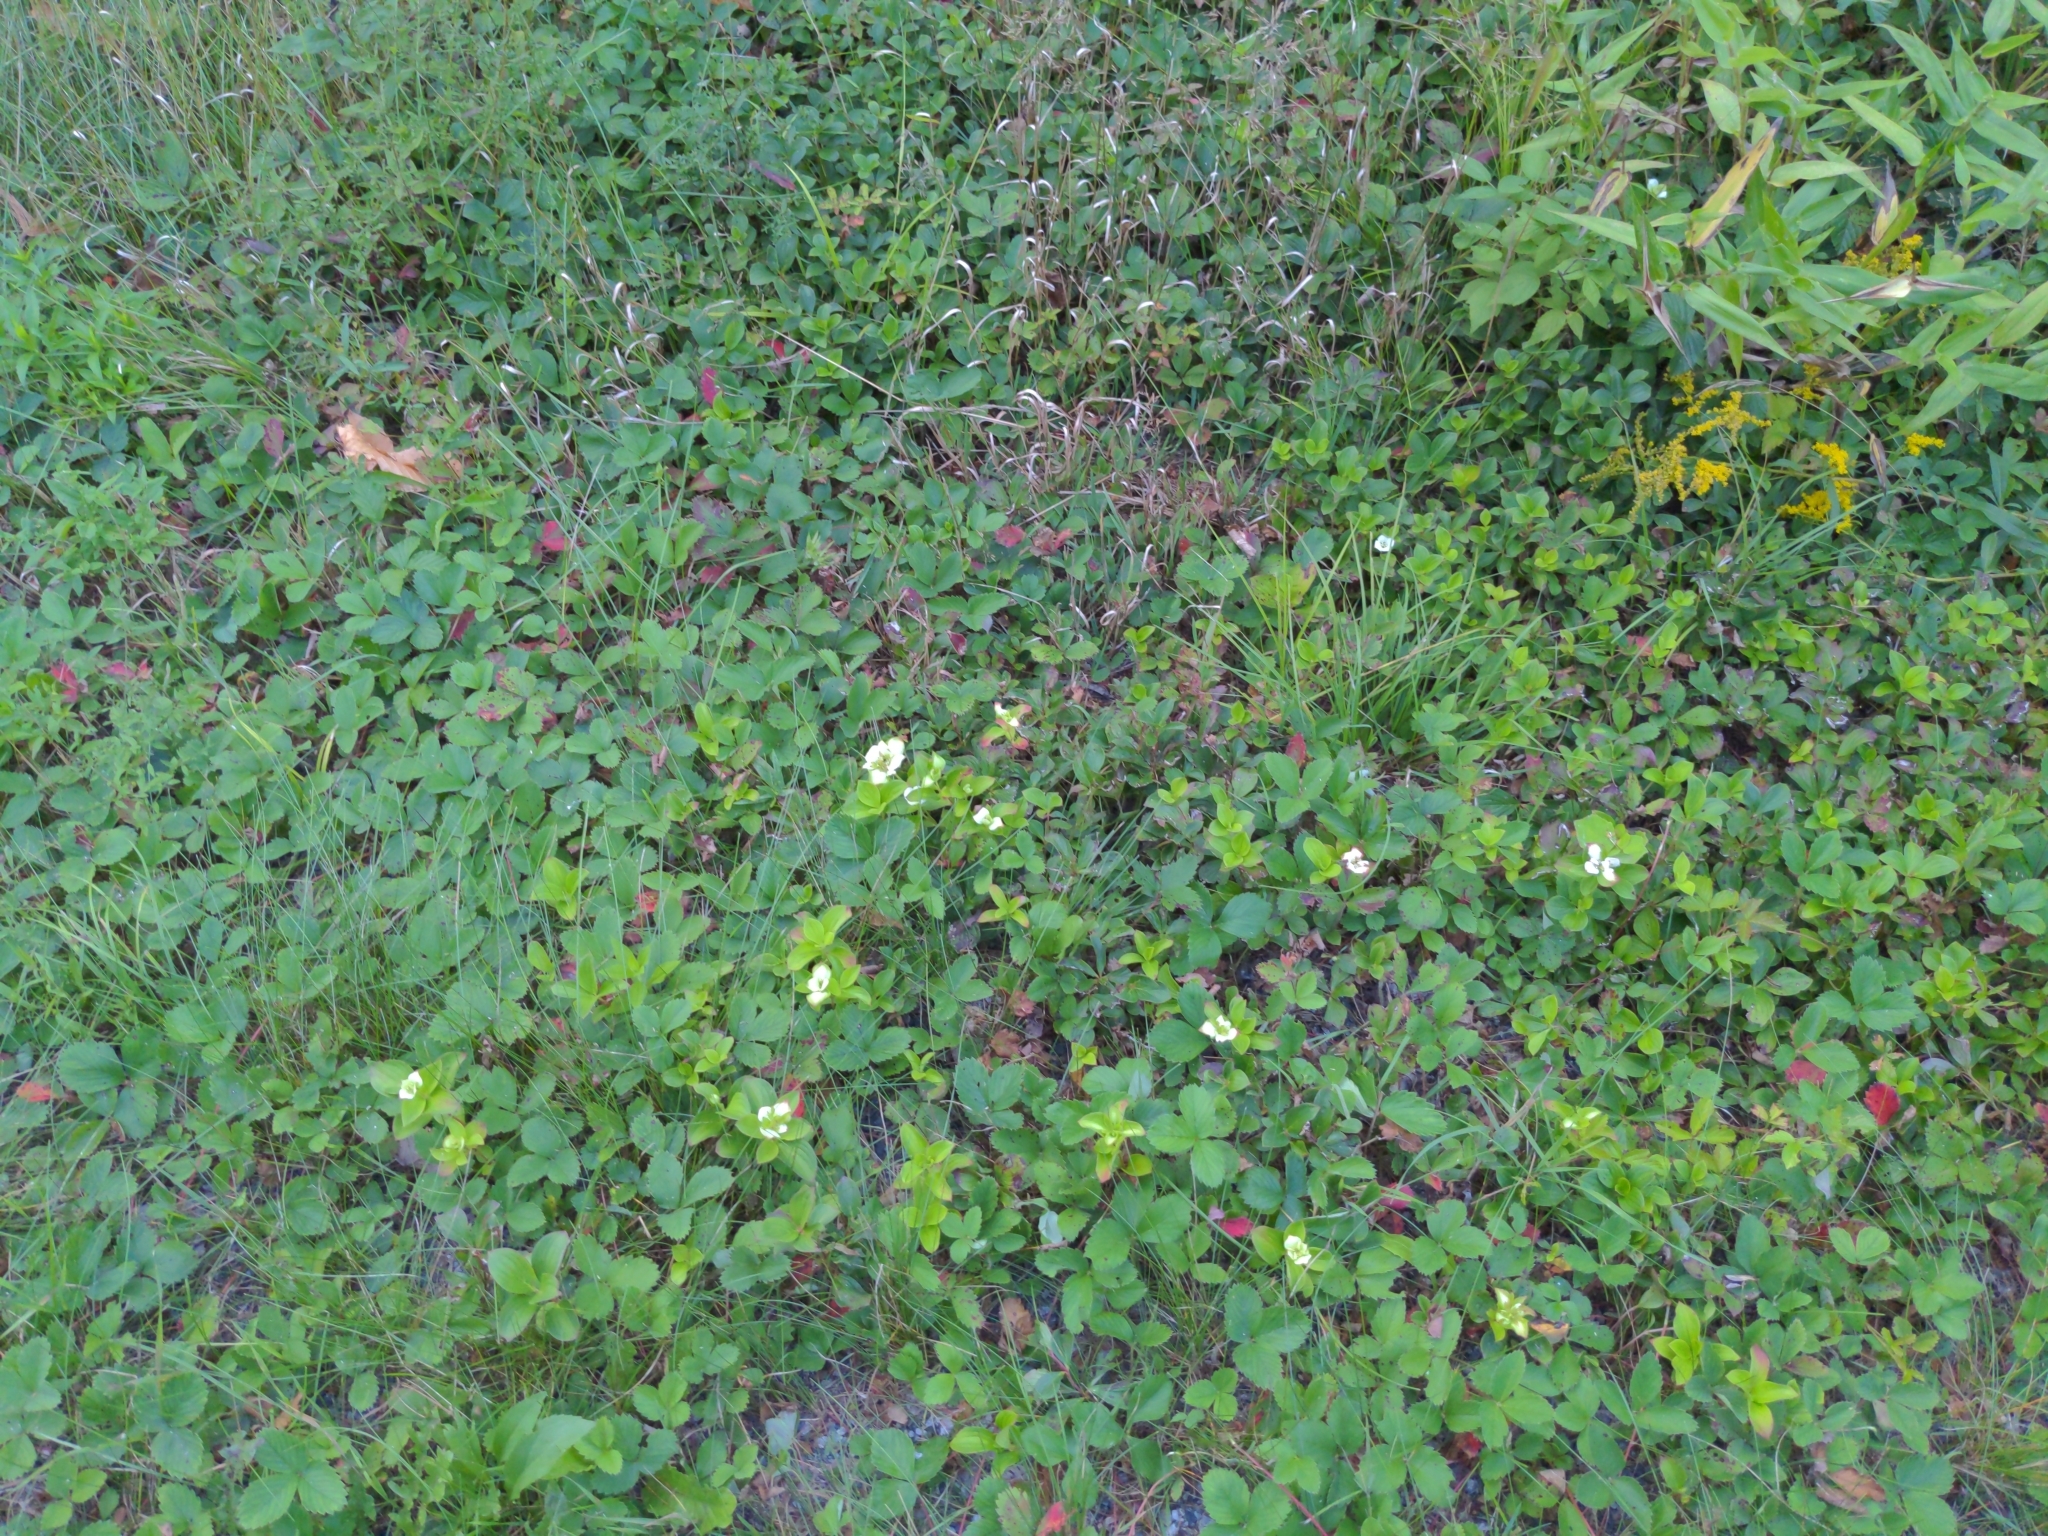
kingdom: Plantae
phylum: Tracheophyta
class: Magnoliopsida
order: Cornales
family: Cornaceae
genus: Cornus
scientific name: Cornus canadensis
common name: Creeping dogwood
